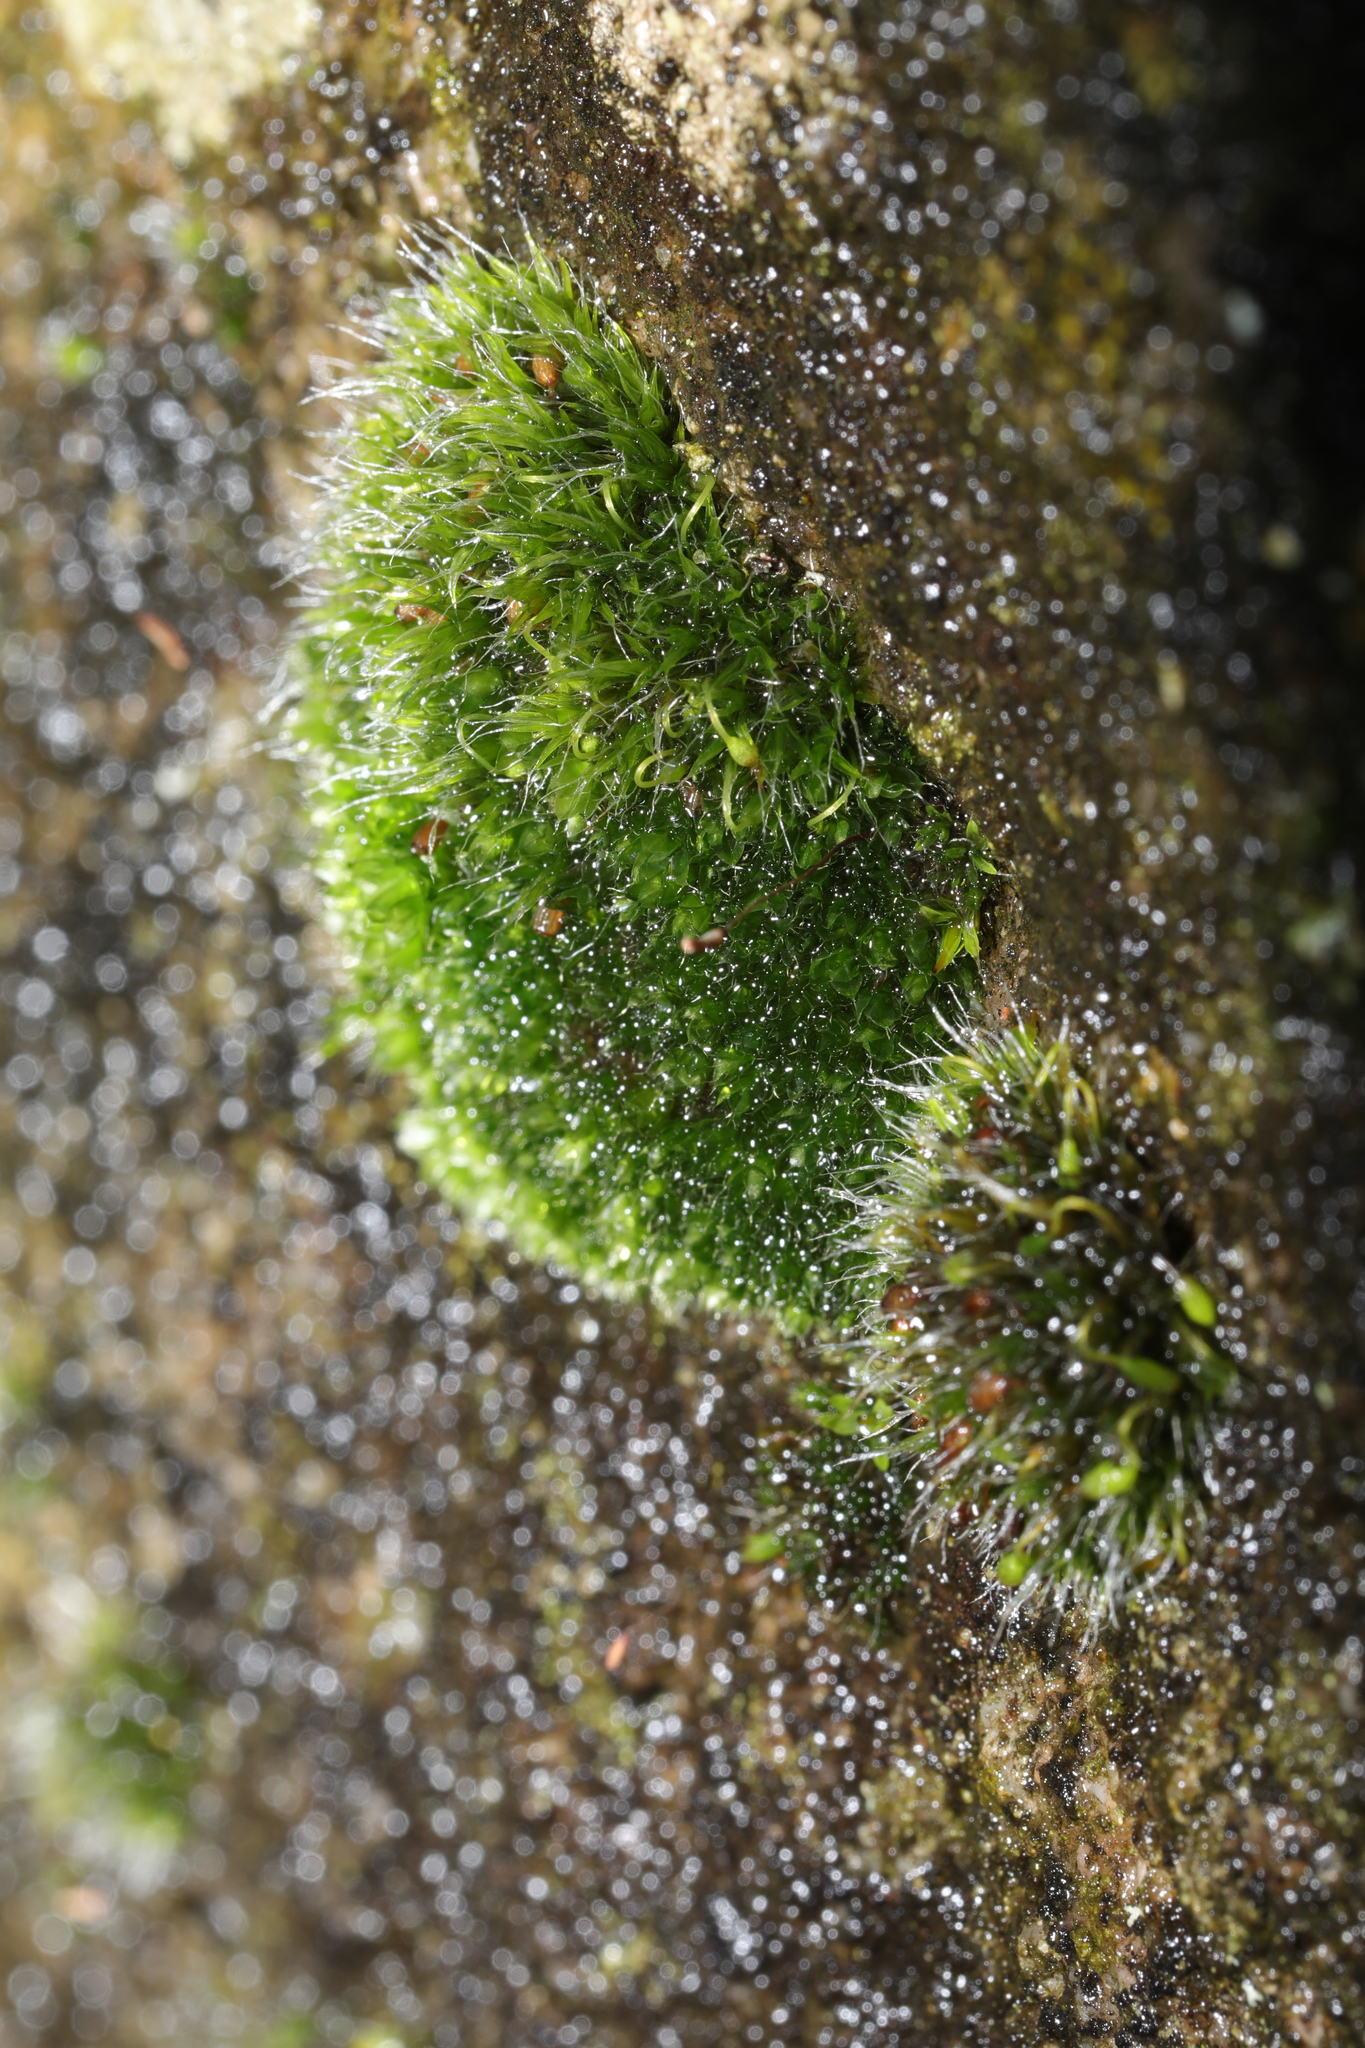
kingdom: Plantae
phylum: Bryophyta
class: Bryopsida
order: Grimmiales
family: Grimmiaceae
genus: Grimmia
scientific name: Grimmia pulvinata
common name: Grey-cushioned grimmia
